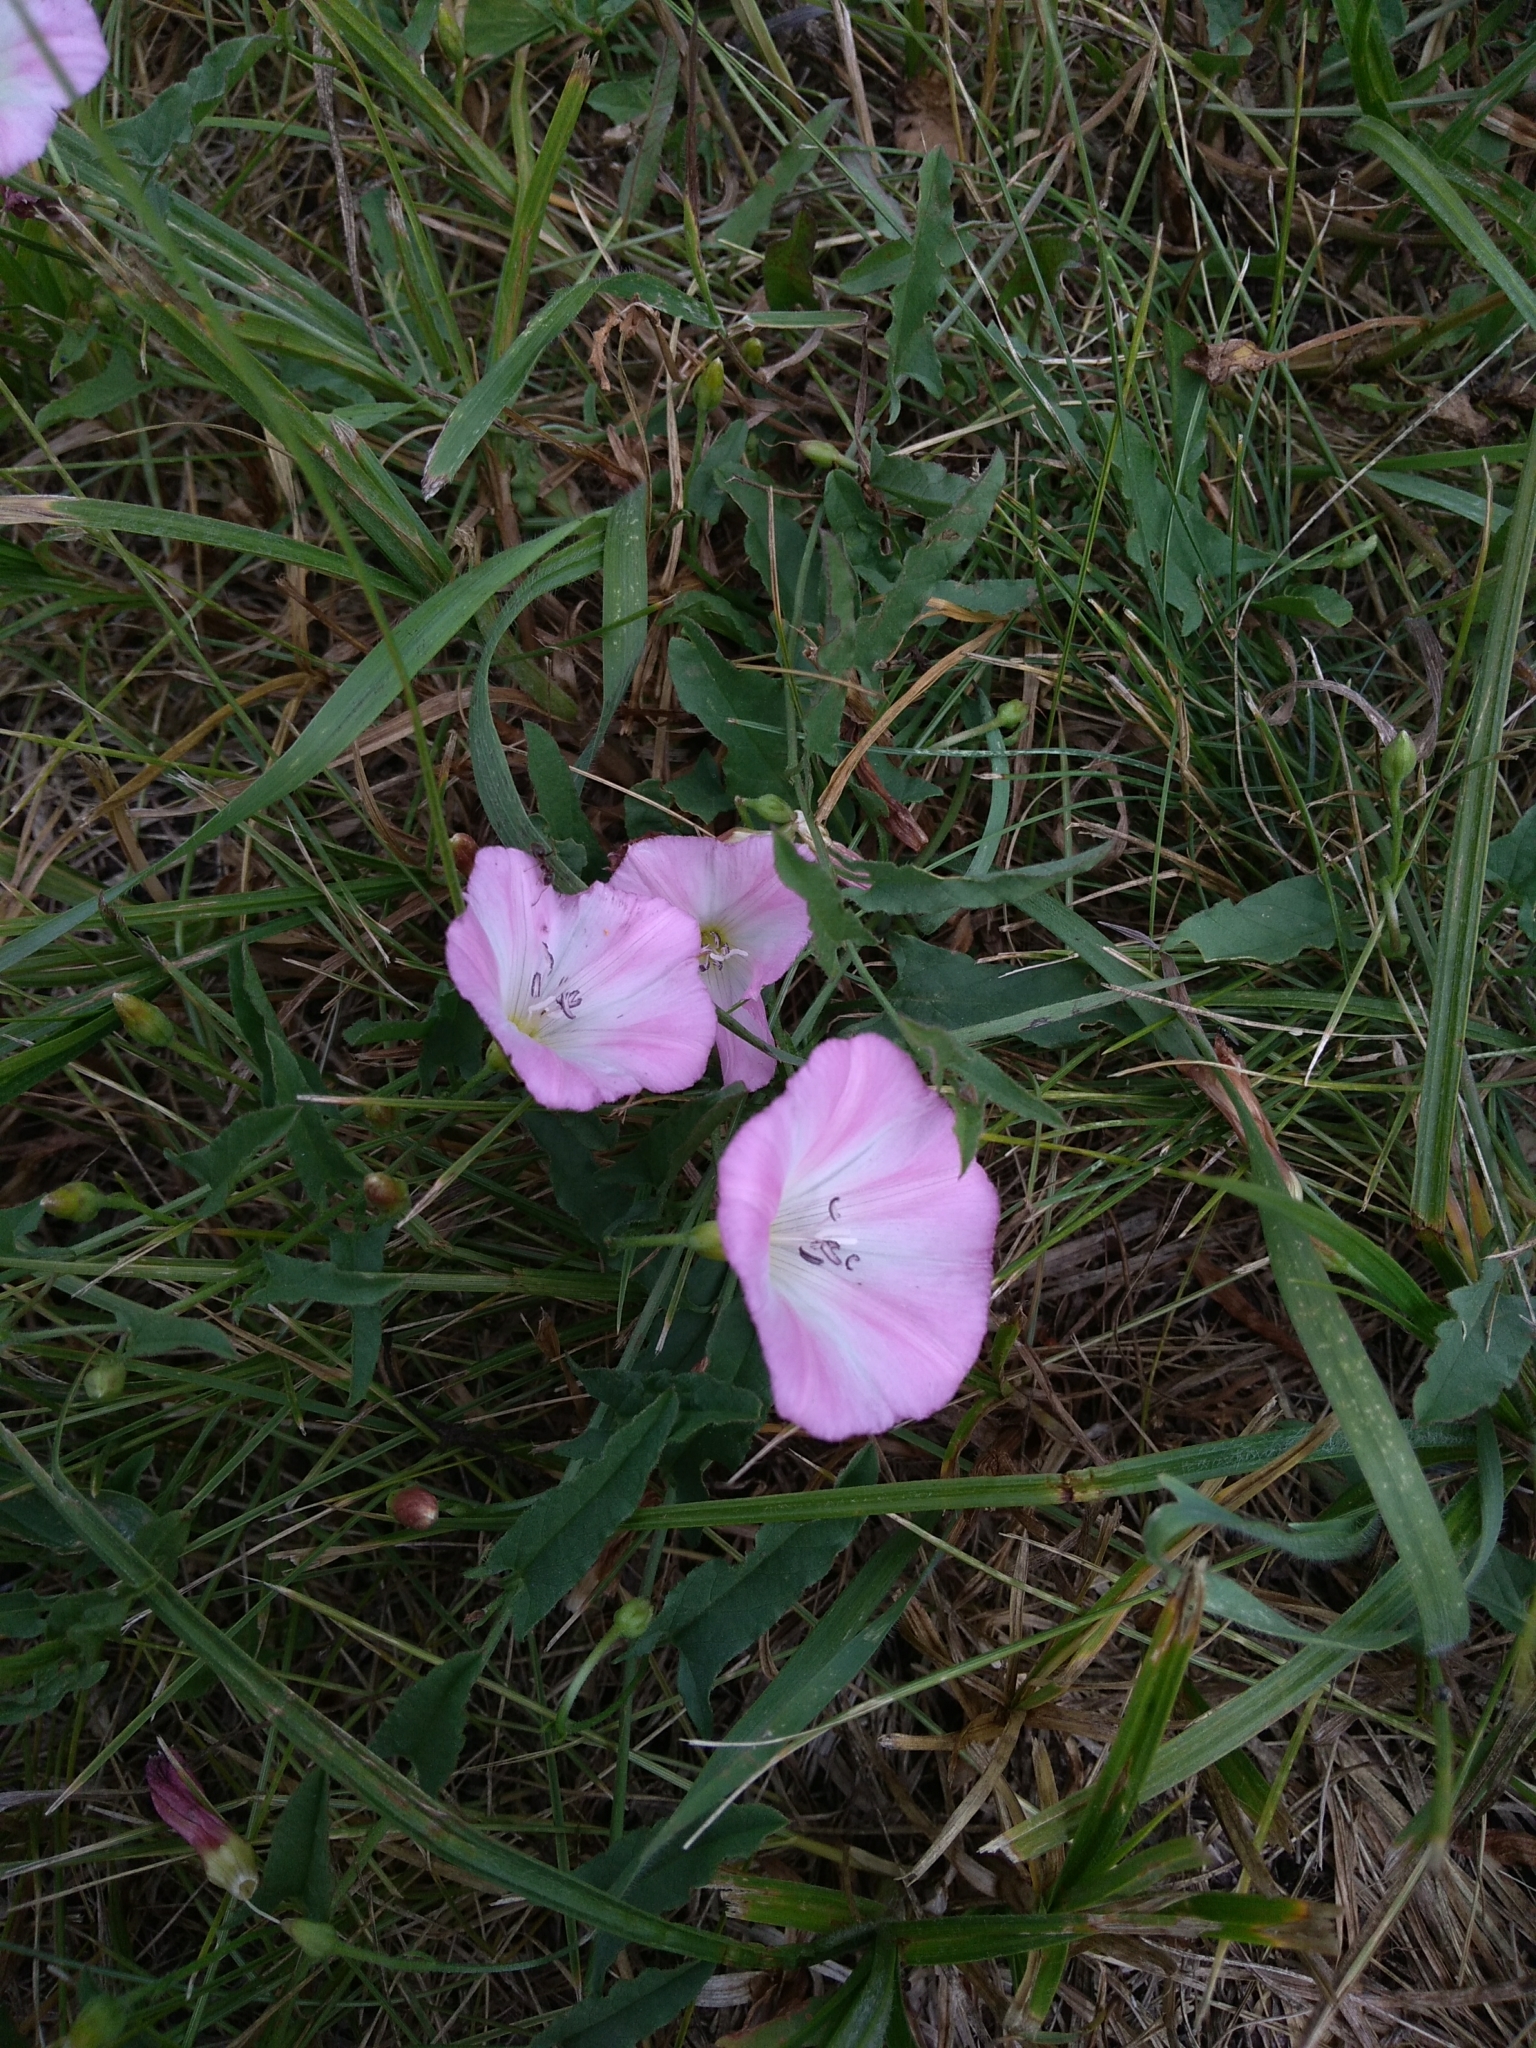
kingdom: Plantae
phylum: Tracheophyta
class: Magnoliopsida
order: Solanales
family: Convolvulaceae
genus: Convolvulus
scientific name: Convolvulus arvensis
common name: Field bindweed
